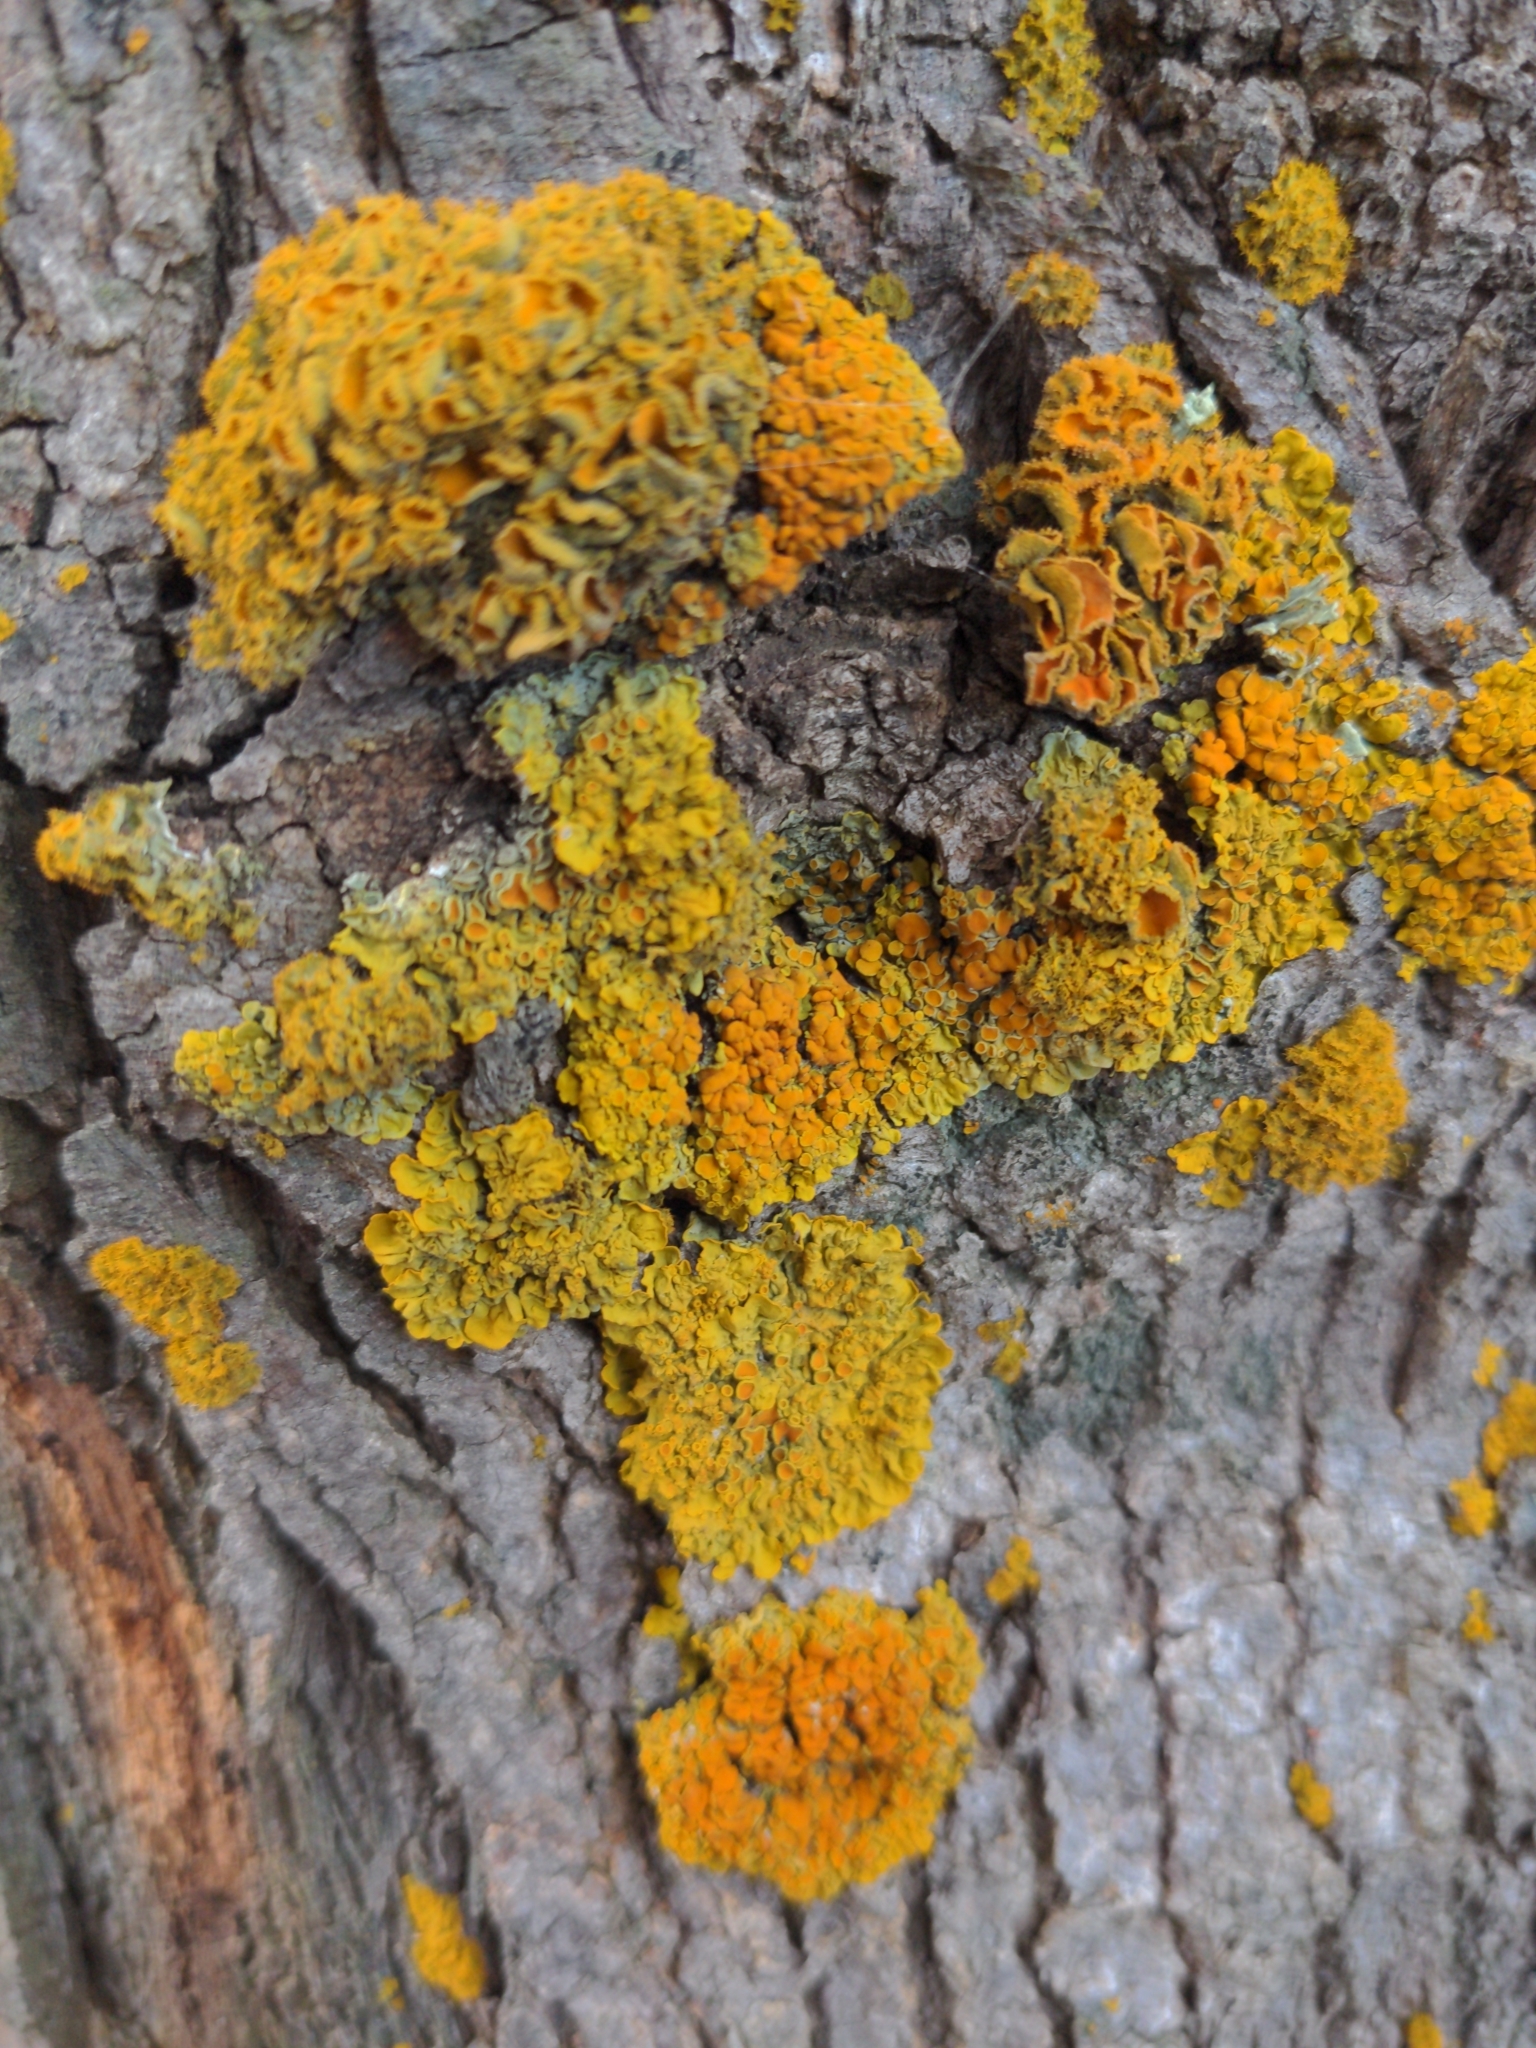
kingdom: Fungi
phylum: Ascomycota
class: Lecanoromycetes
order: Teloschistales
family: Teloschistaceae
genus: Niorma
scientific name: Niorma chrysophthalma
